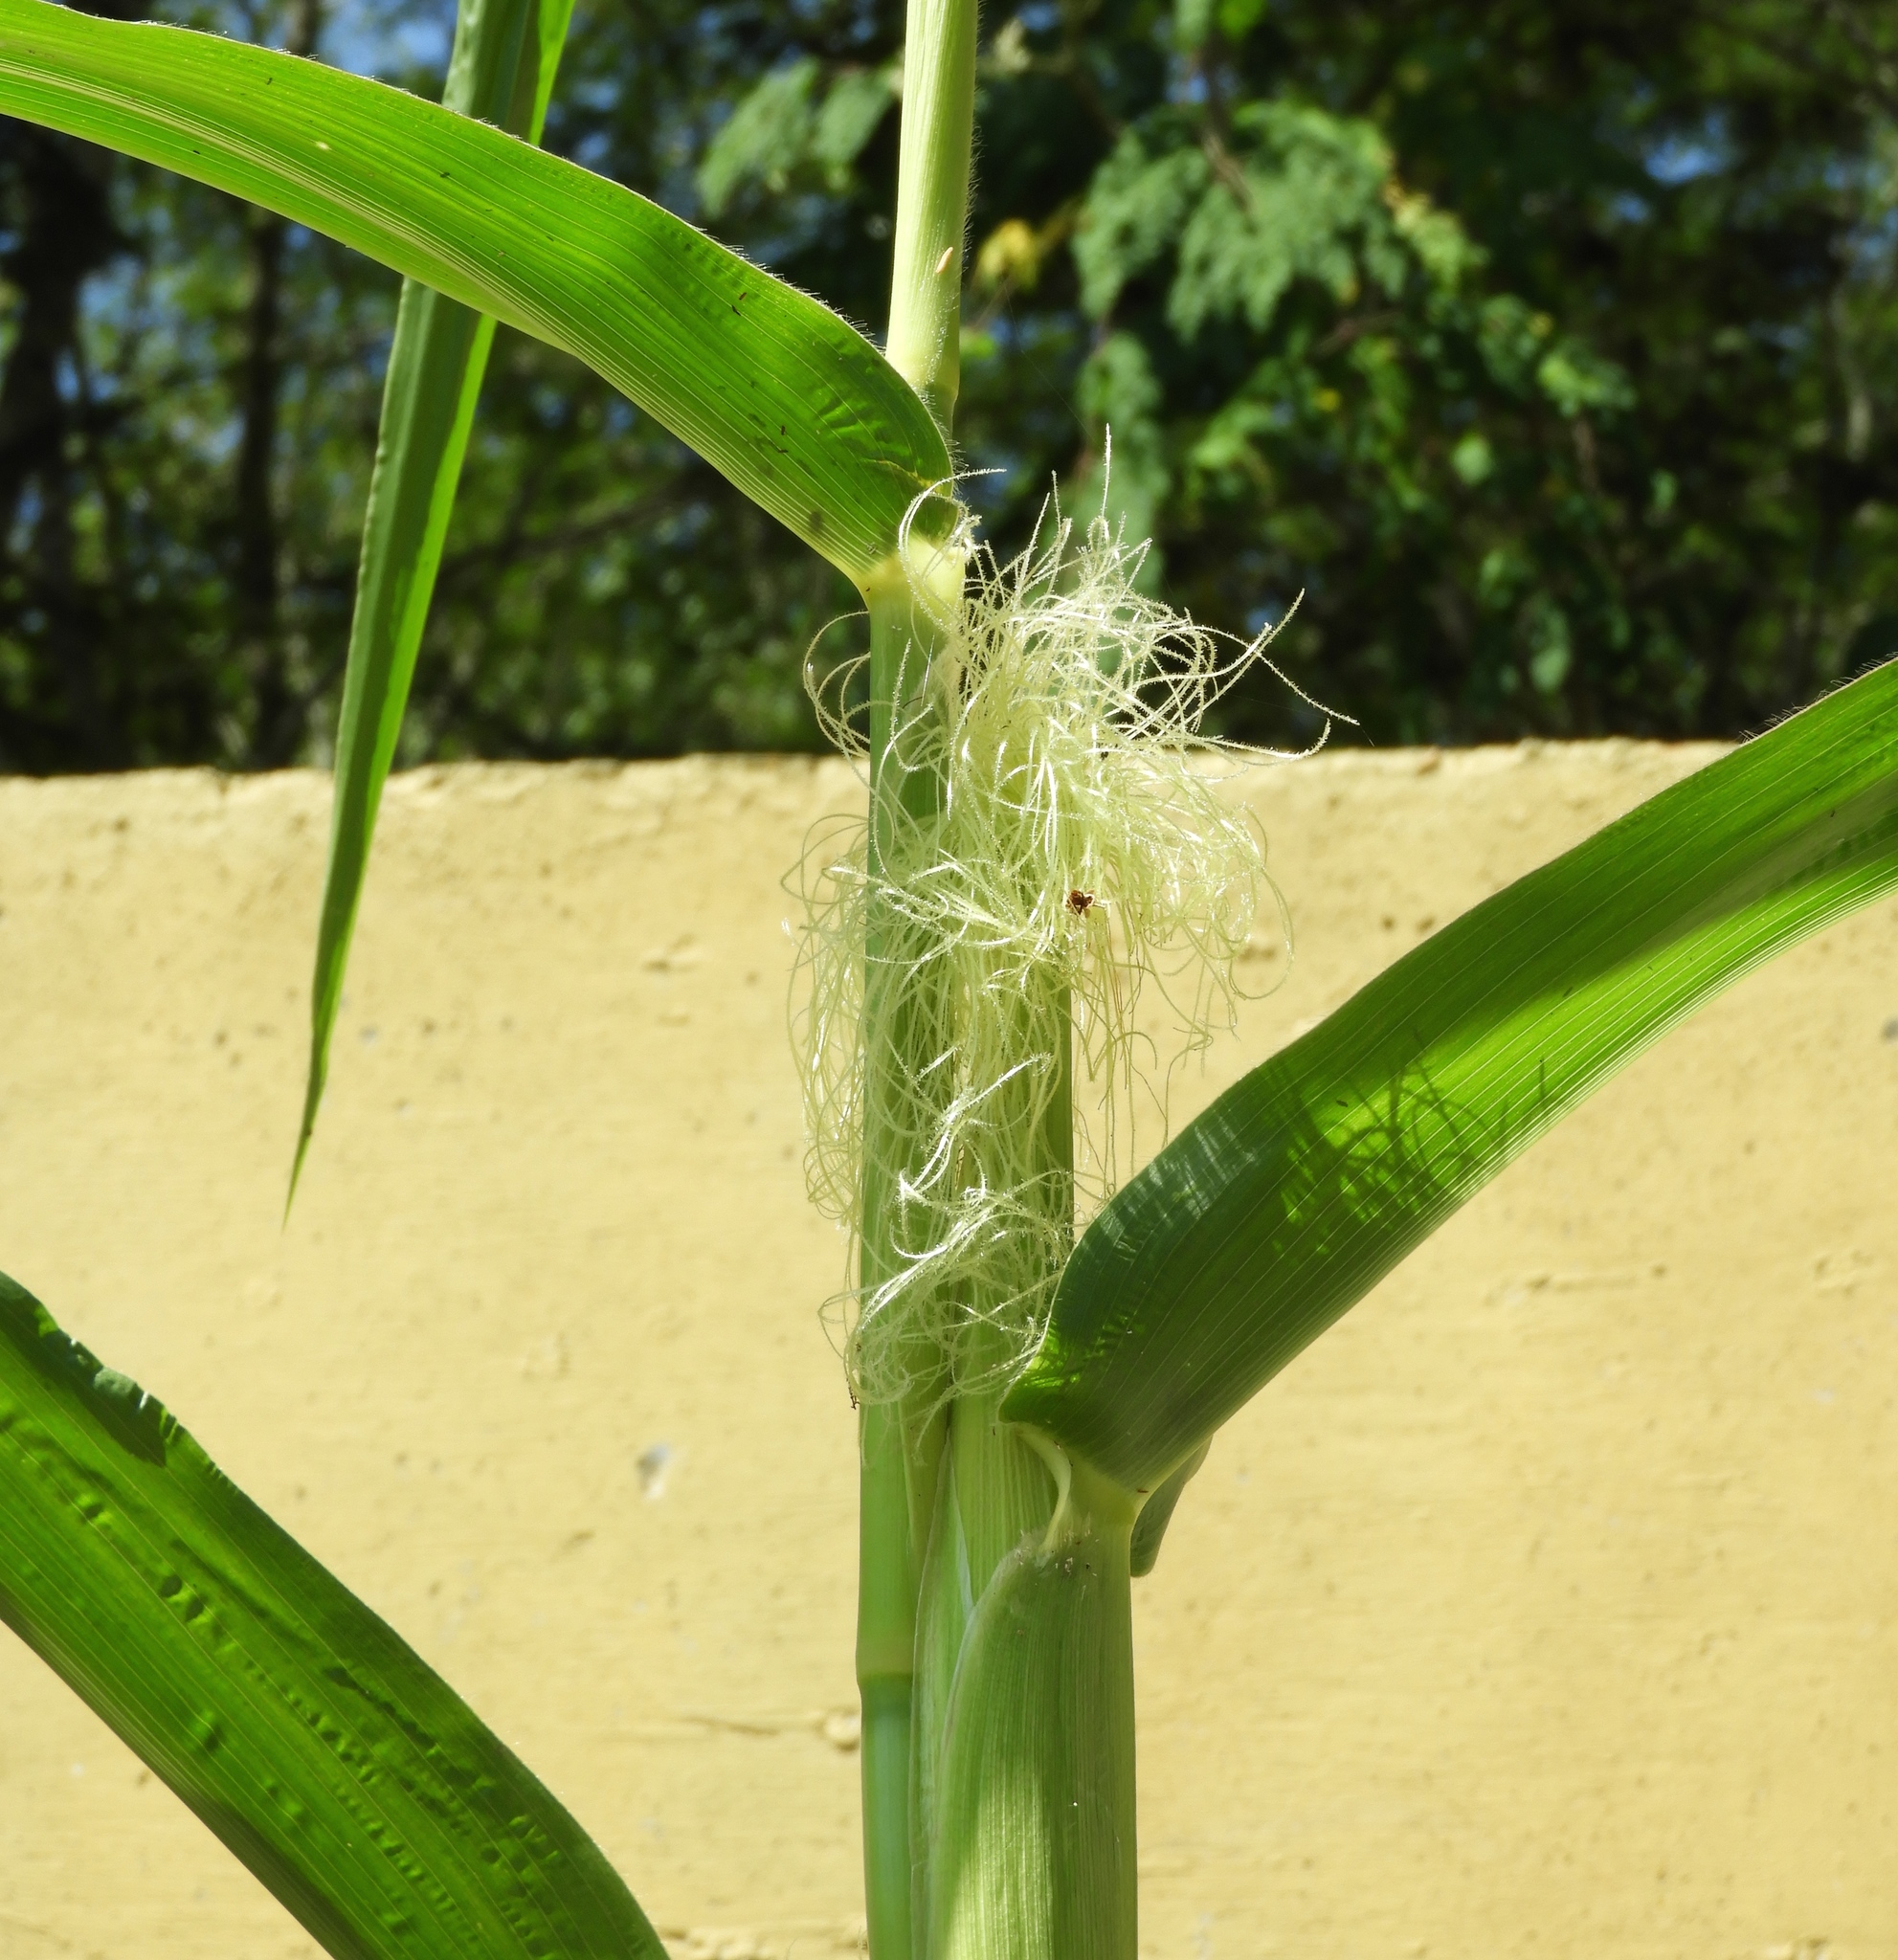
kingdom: Plantae
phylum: Tracheophyta
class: Liliopsida
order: Poales
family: Poaceae
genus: Zea
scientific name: Zea mays
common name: Maize
